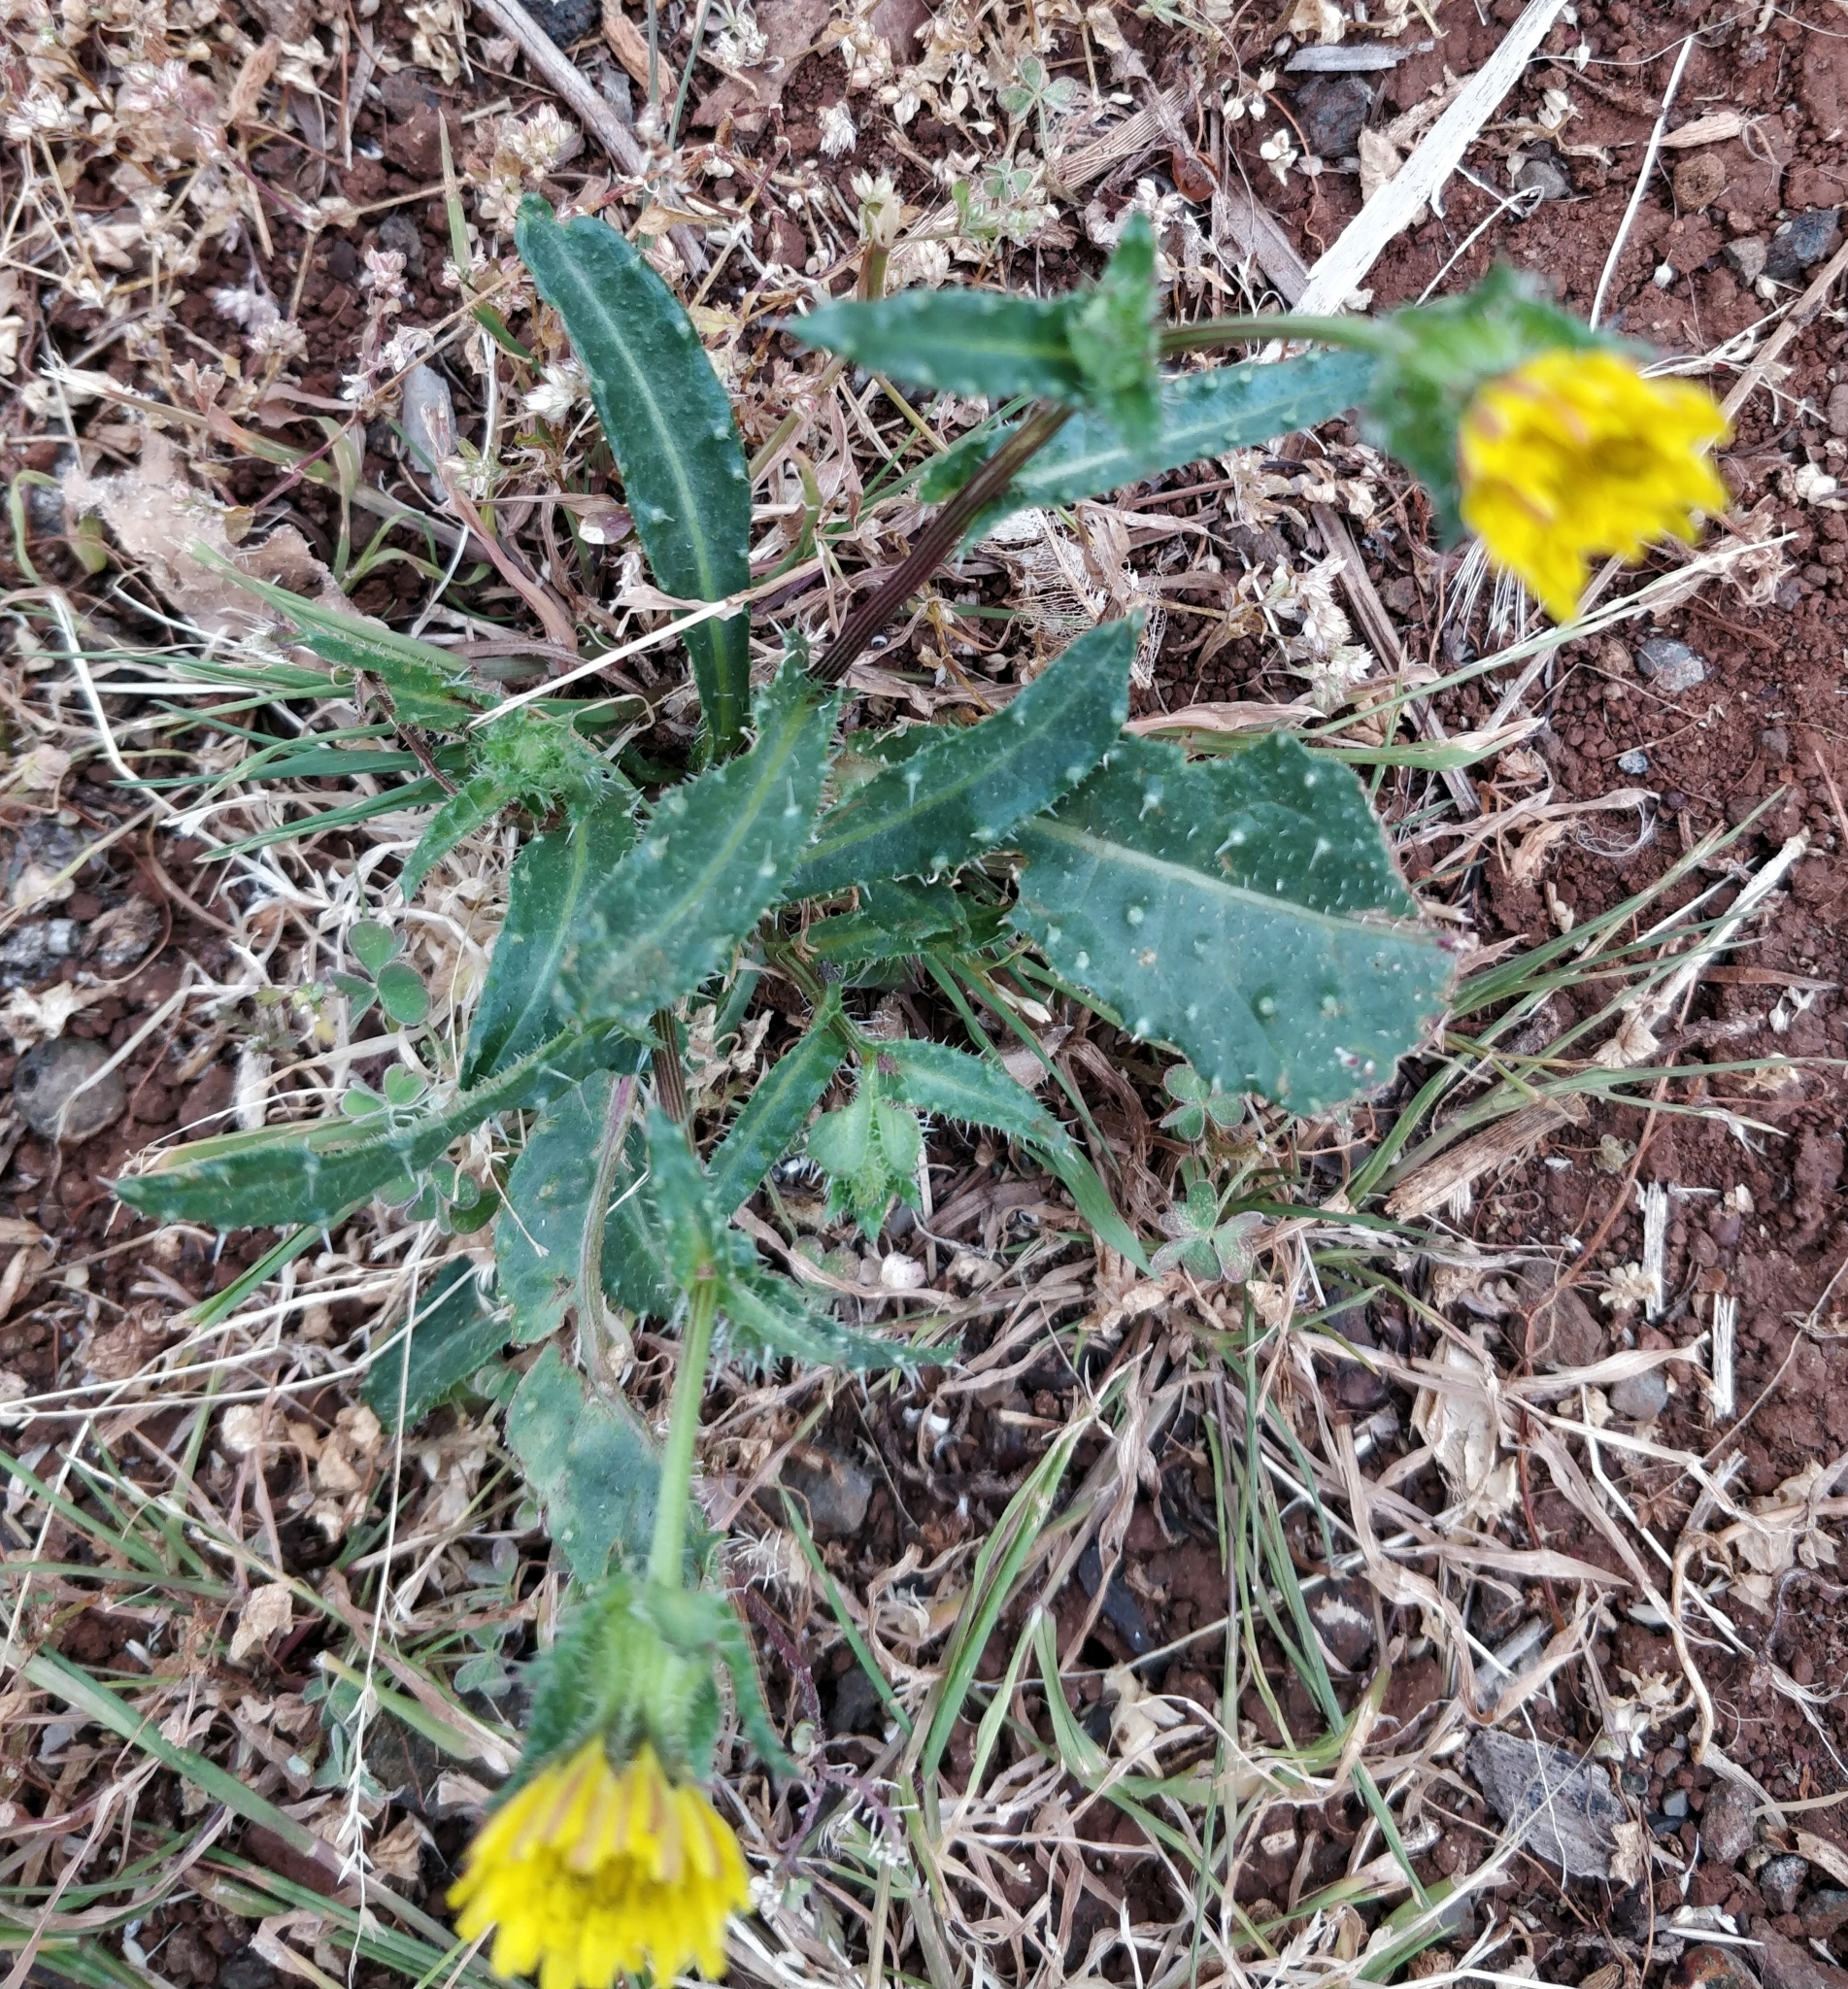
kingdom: Plantae
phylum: Tracheophyta
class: Magnoliopsida
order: Asterales
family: Asteraceae
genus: Helminthotheca
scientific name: Helminthotheca echioides
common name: Ox-tongue
